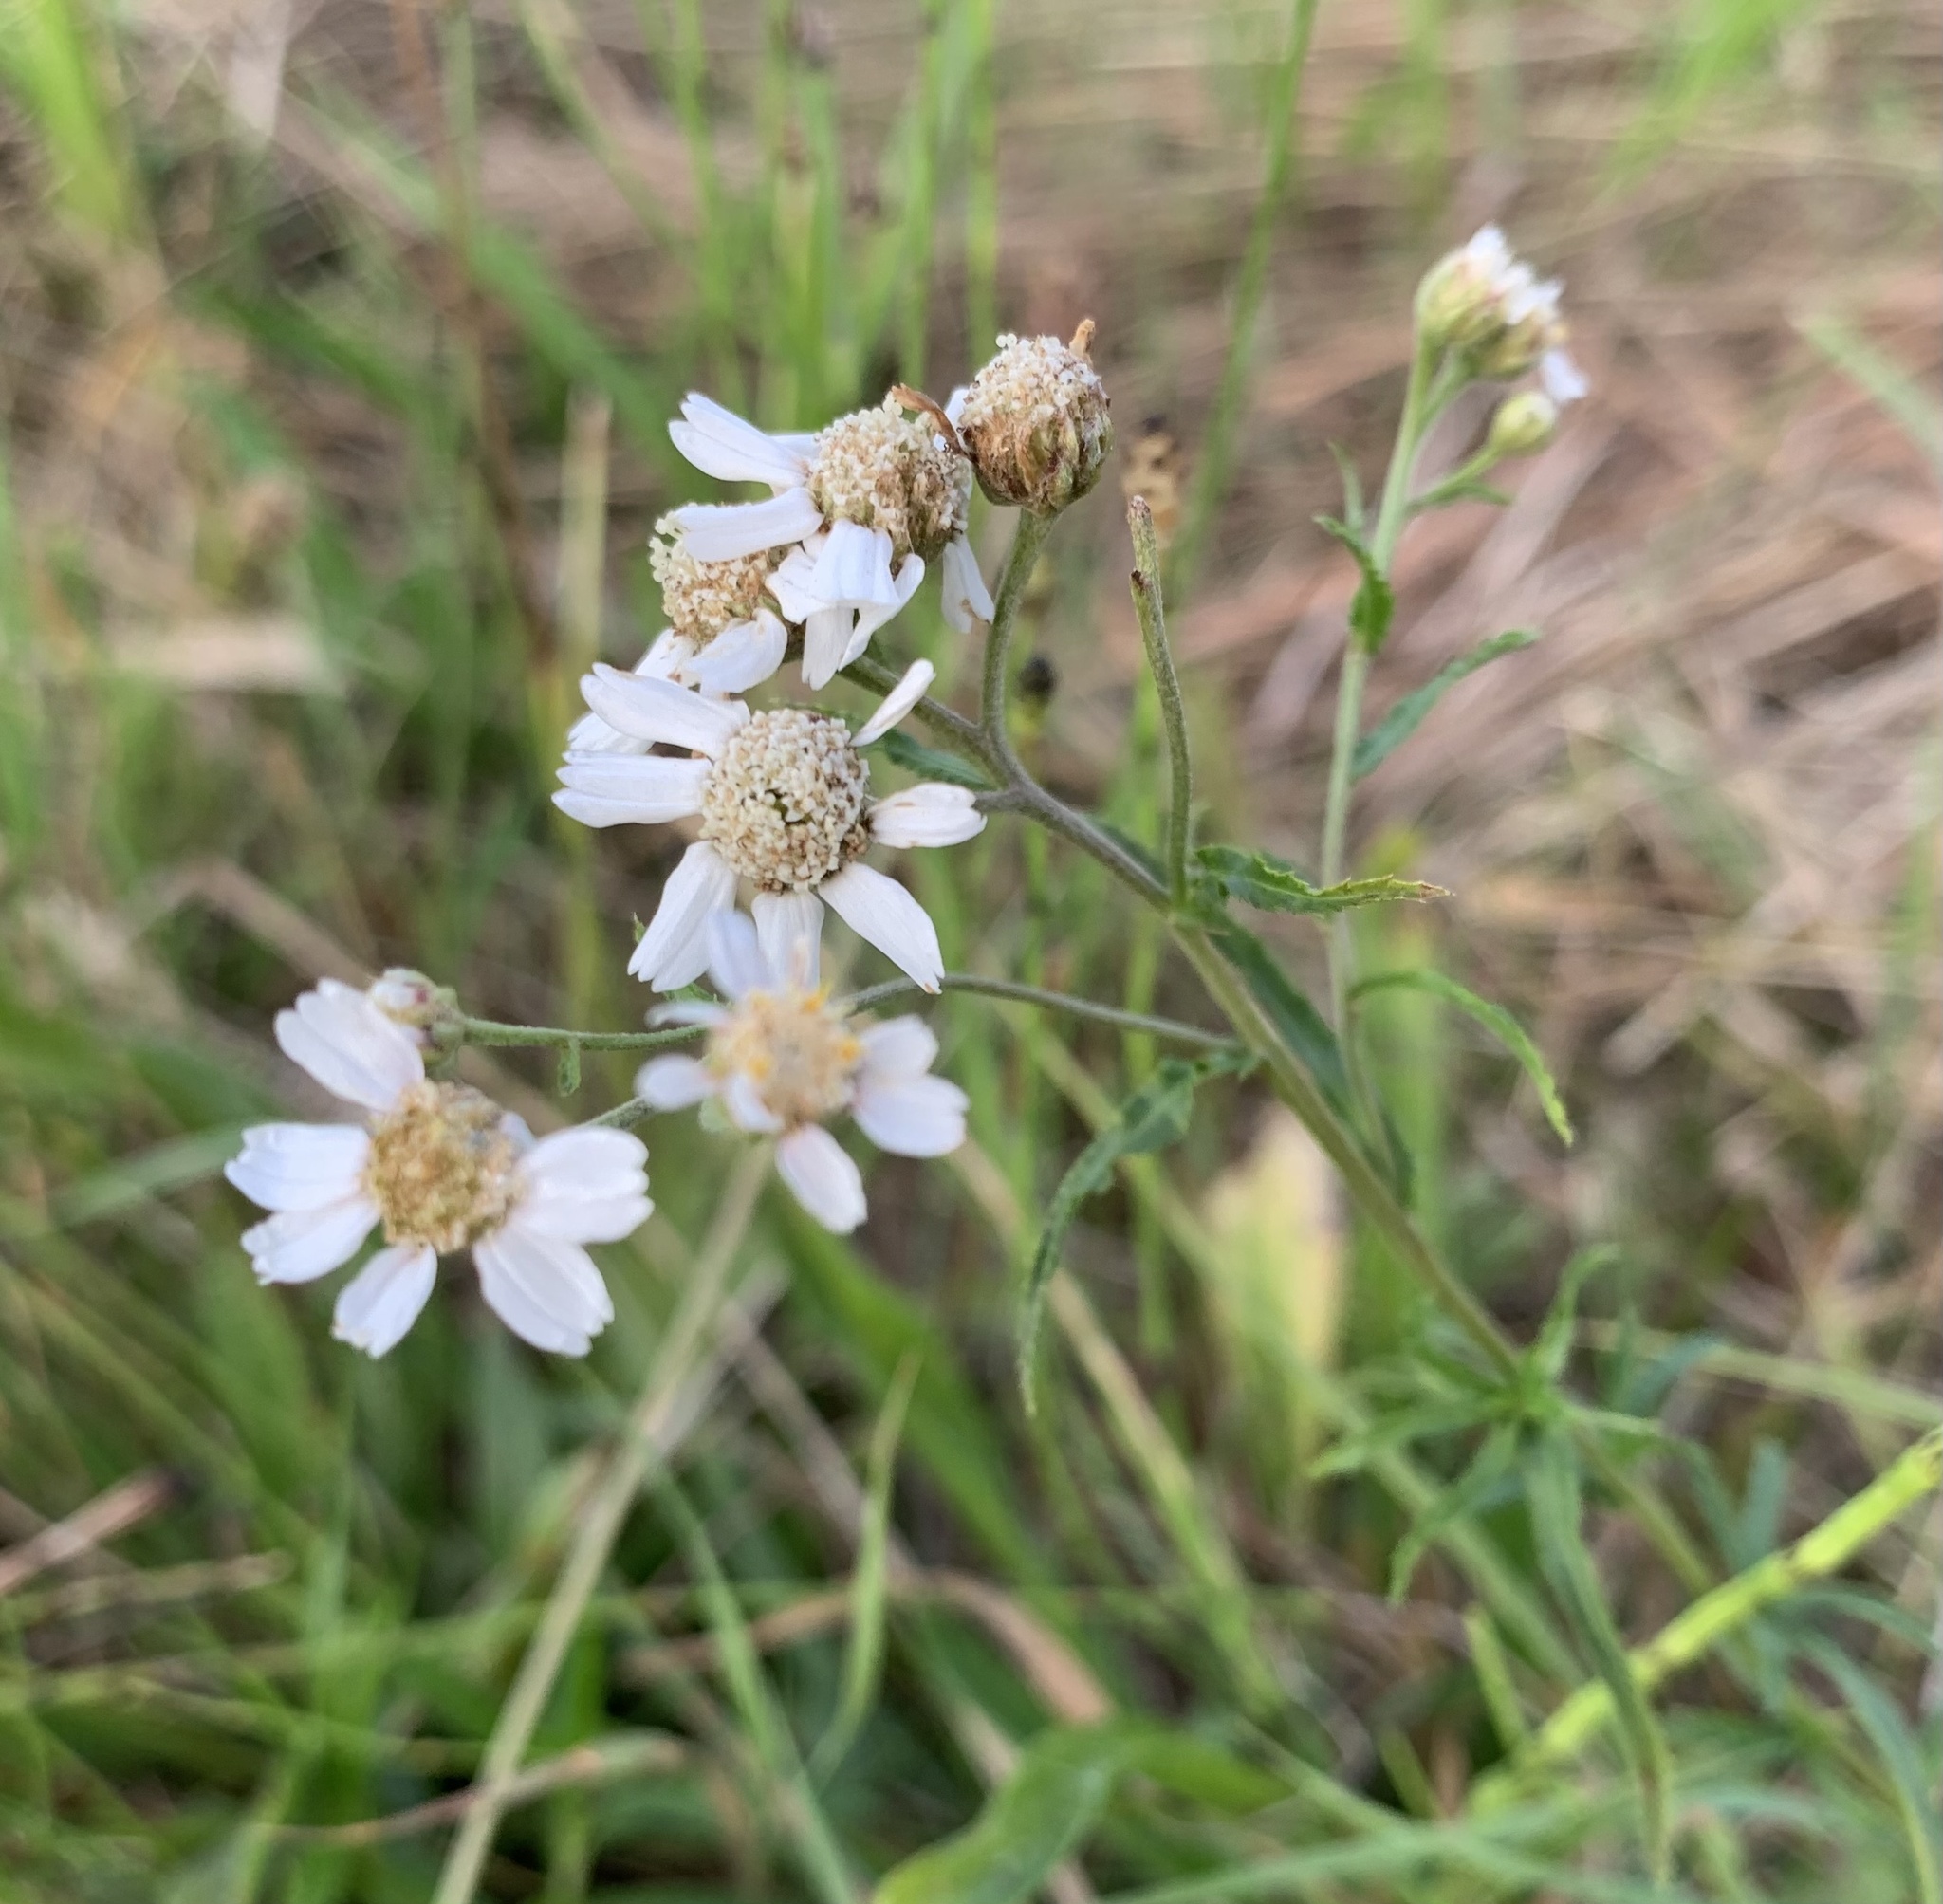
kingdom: Plantae
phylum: Tracheophyta
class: Magnoliopsida
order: Asterales
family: Asteraceae
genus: Achillea
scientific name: Achillea ptarmica
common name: Sneezeweed
